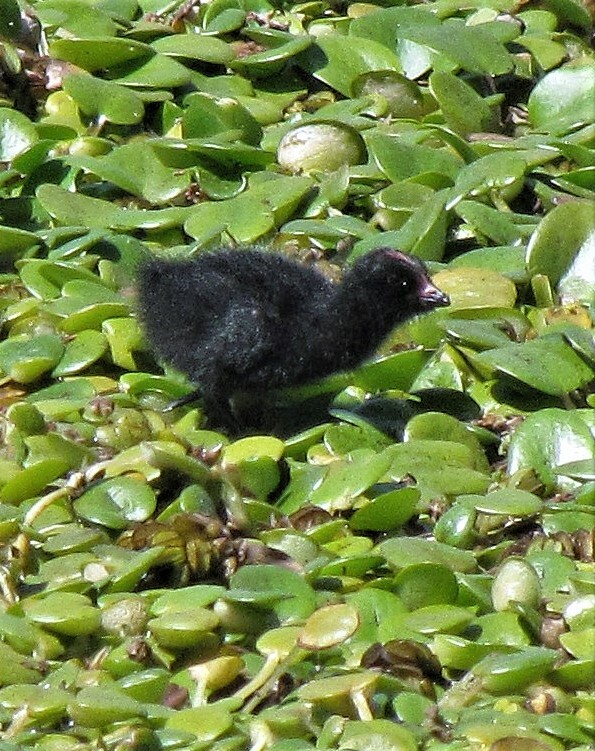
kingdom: Animalia
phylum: Chordata
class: Aves
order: Gruiformes
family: Rallidae
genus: Gallinula
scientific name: Gallinula melanops
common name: Spot-flanked gallinule
